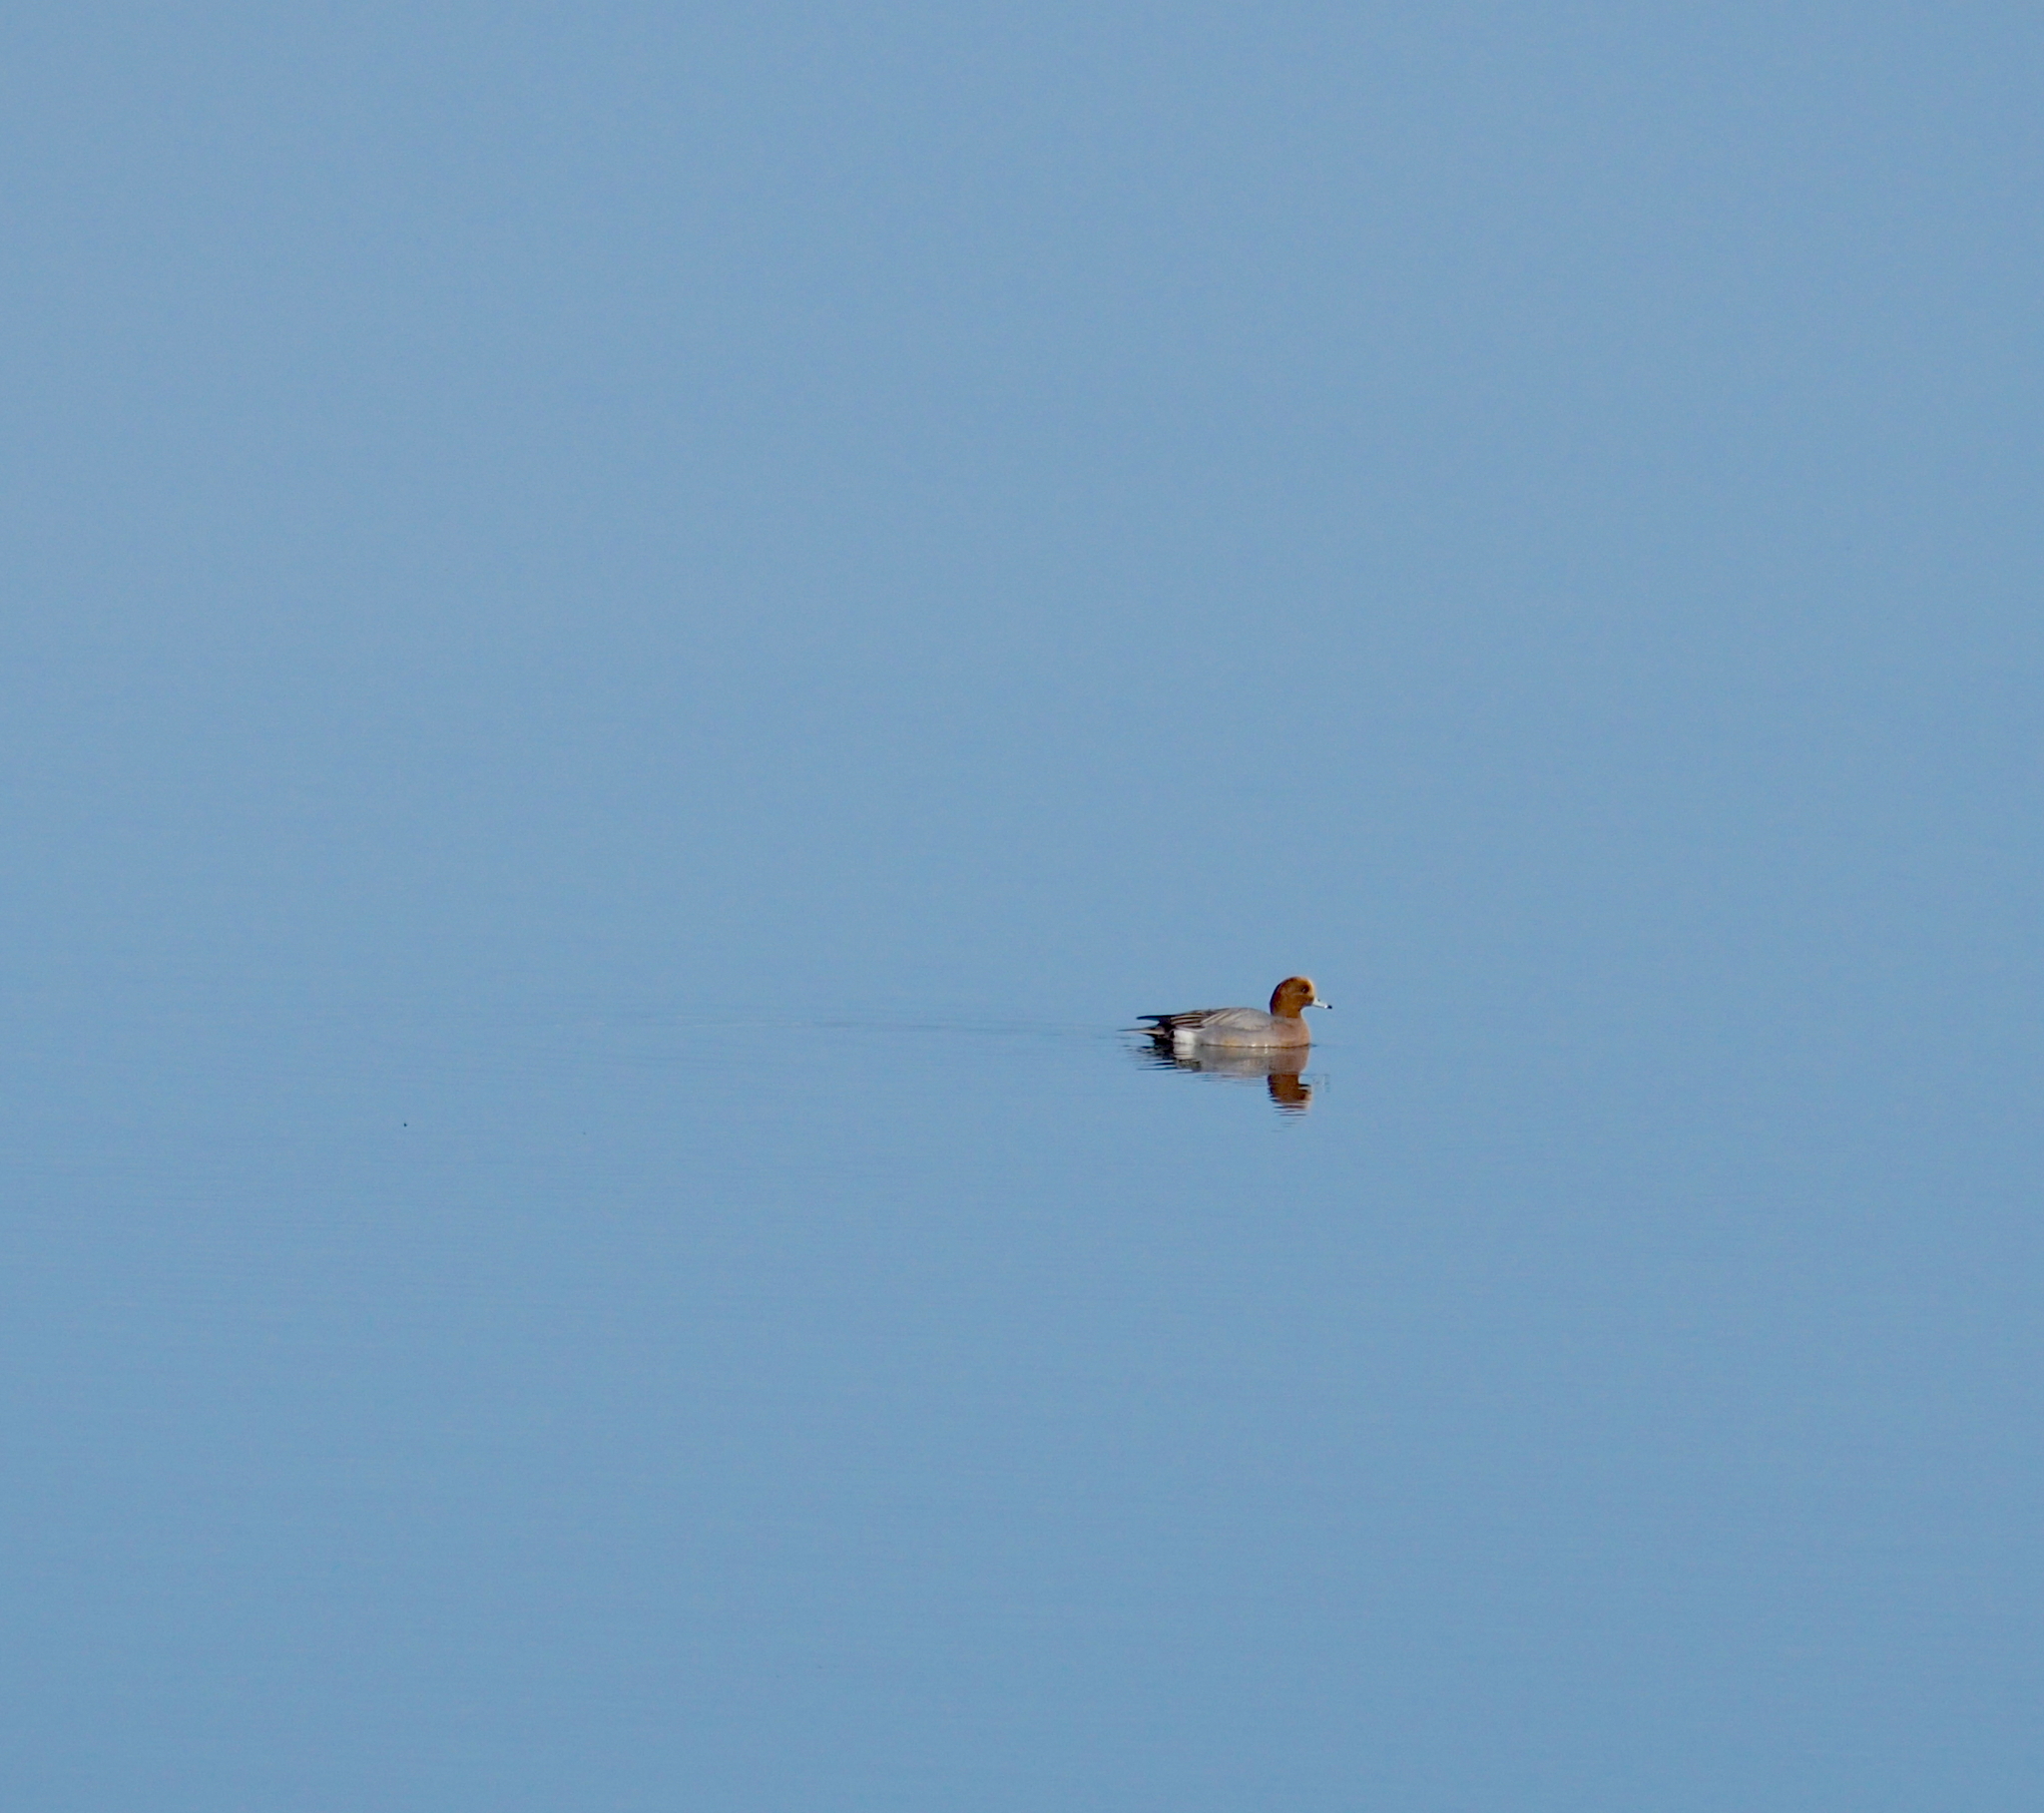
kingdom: Animalia
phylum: Chordata
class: Aves
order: Anseriformes
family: Anatidae
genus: Mareca
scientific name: Mareca penelope
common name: Eurasian wigeon
